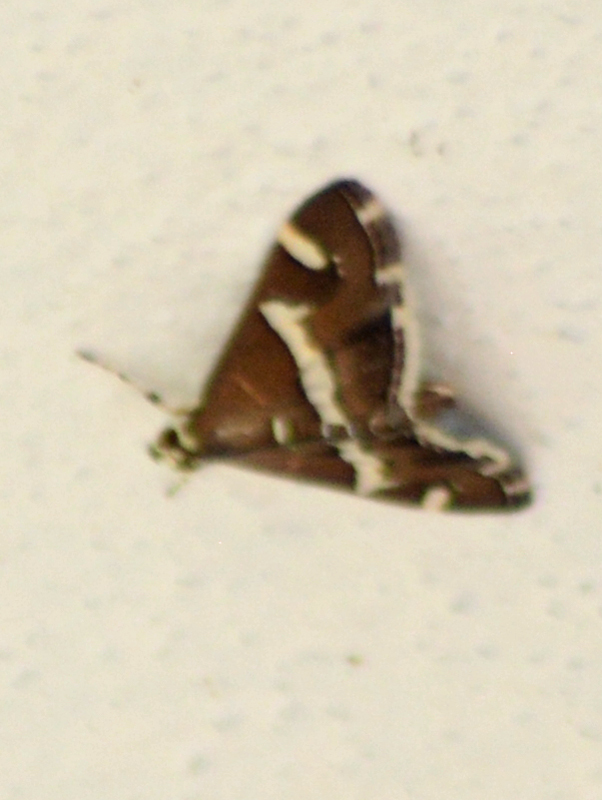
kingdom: Animalia
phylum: Arthropoda
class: Insecta
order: Lepidoptera
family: Crambidae
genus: Spoladea
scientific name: Spoladea recurvalis
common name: Beet webworm moth
